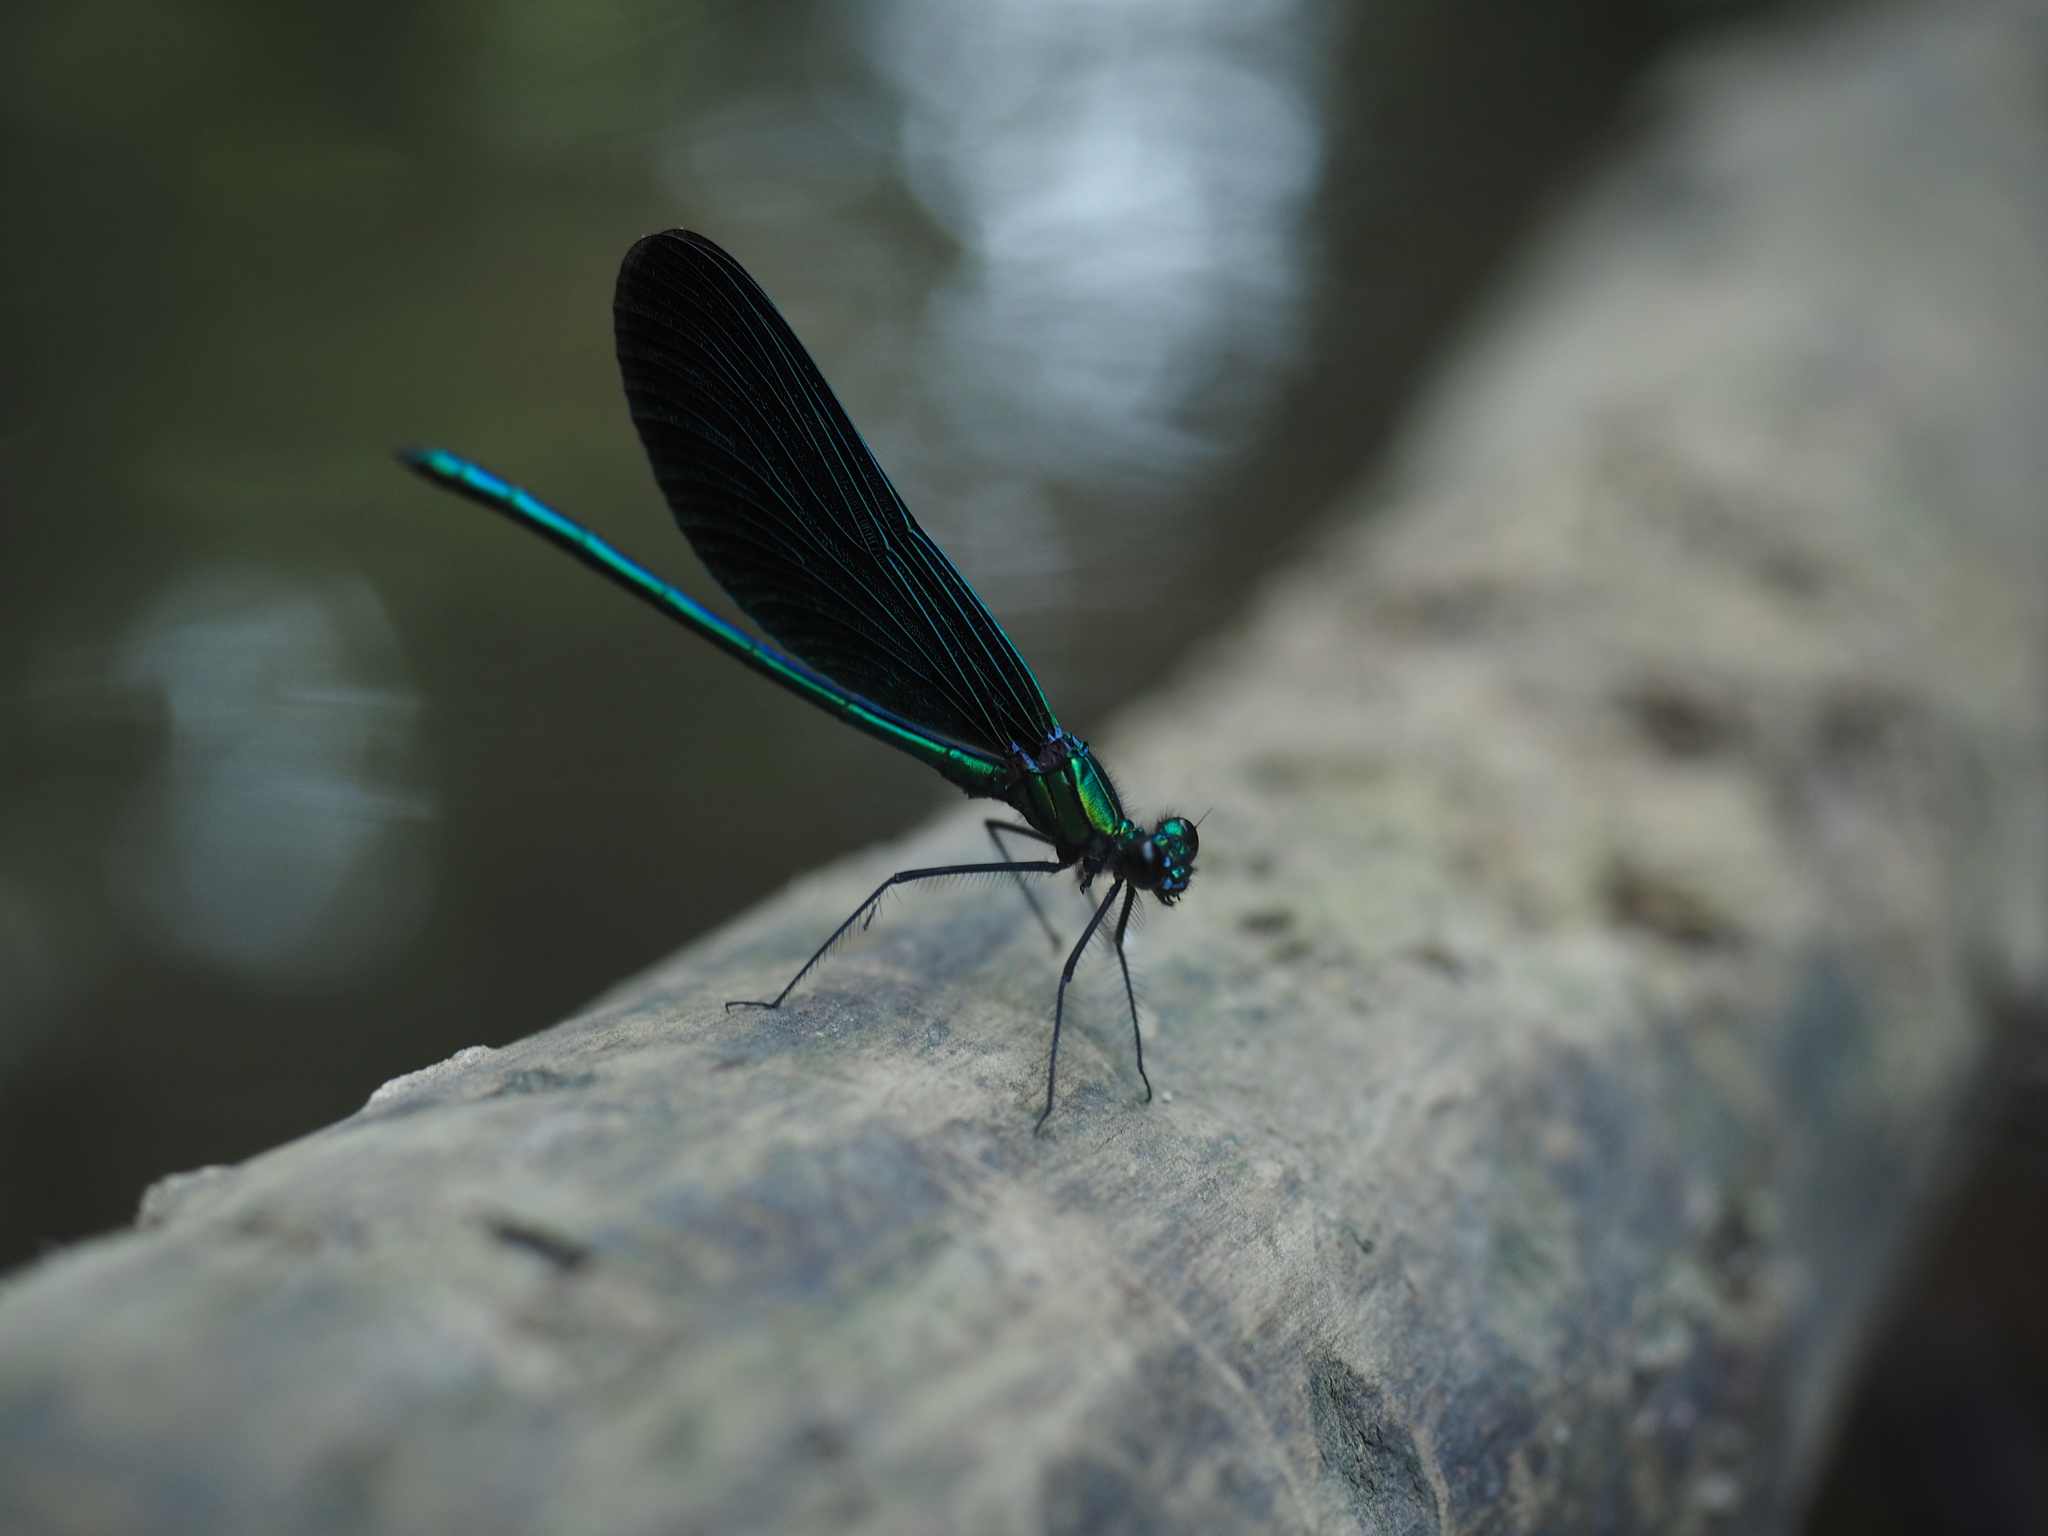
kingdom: Animalia
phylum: Arthropoda
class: Insecta
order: Odonata
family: Calopterygidae
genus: Calopteryx
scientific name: Calopteryx virgo
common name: Beautiful demoiselle
